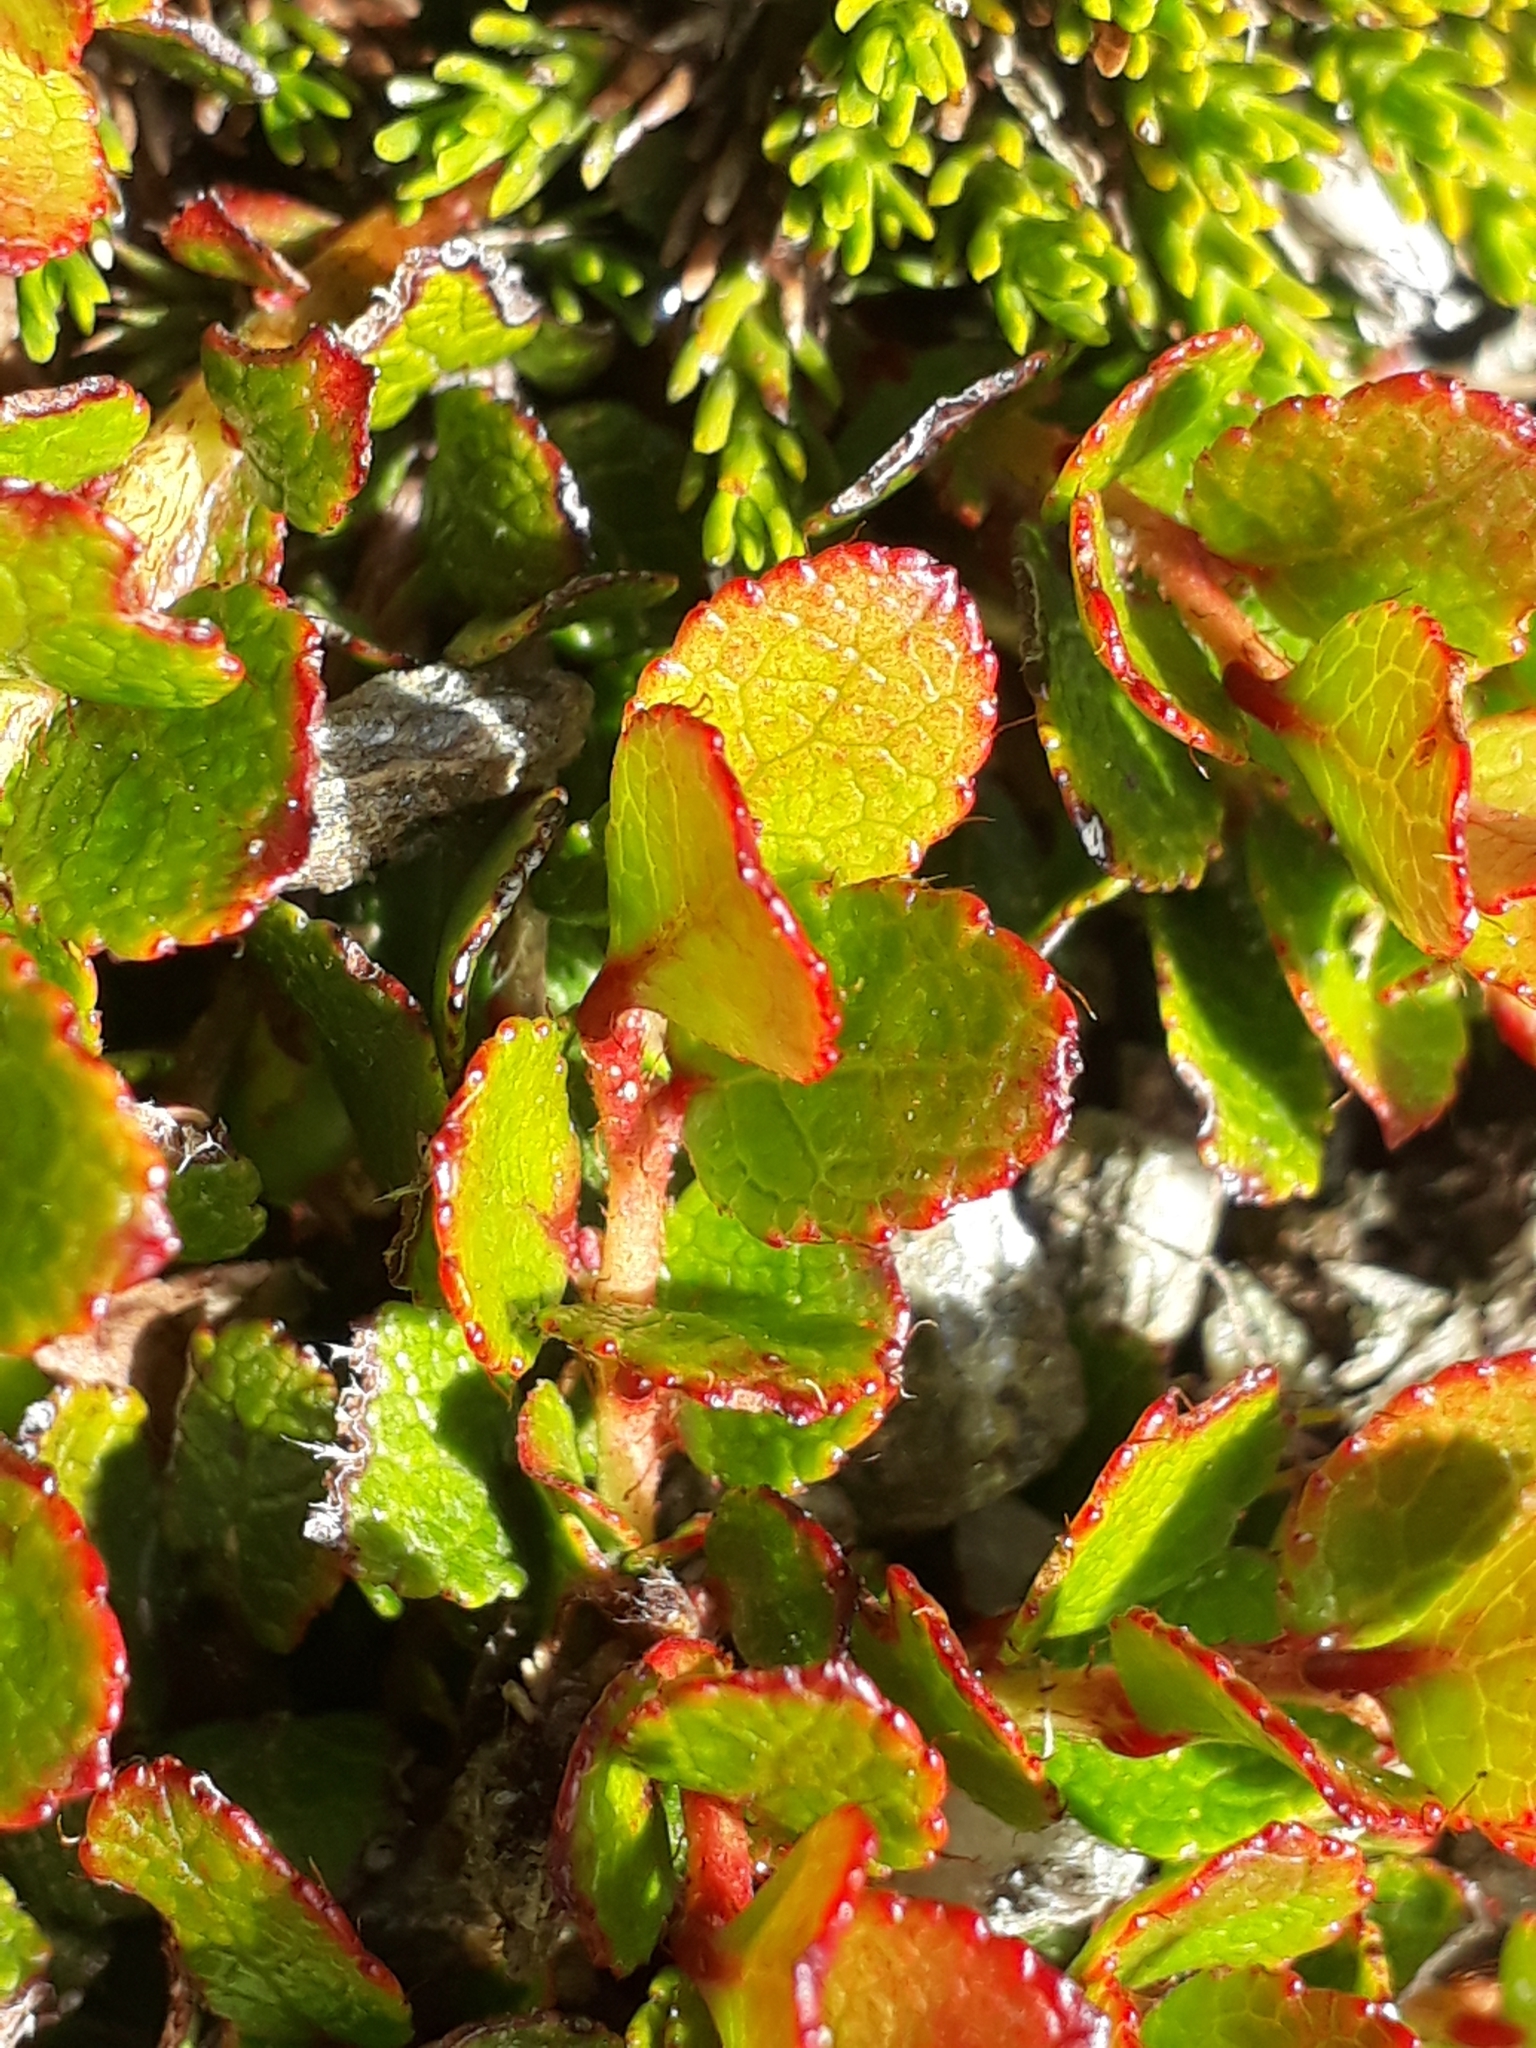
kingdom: Plantae
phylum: Tracheophyta
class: Magnoliopsida
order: Ericales
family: Ericaceae
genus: Gaultheria
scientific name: Gaultheria depressa
